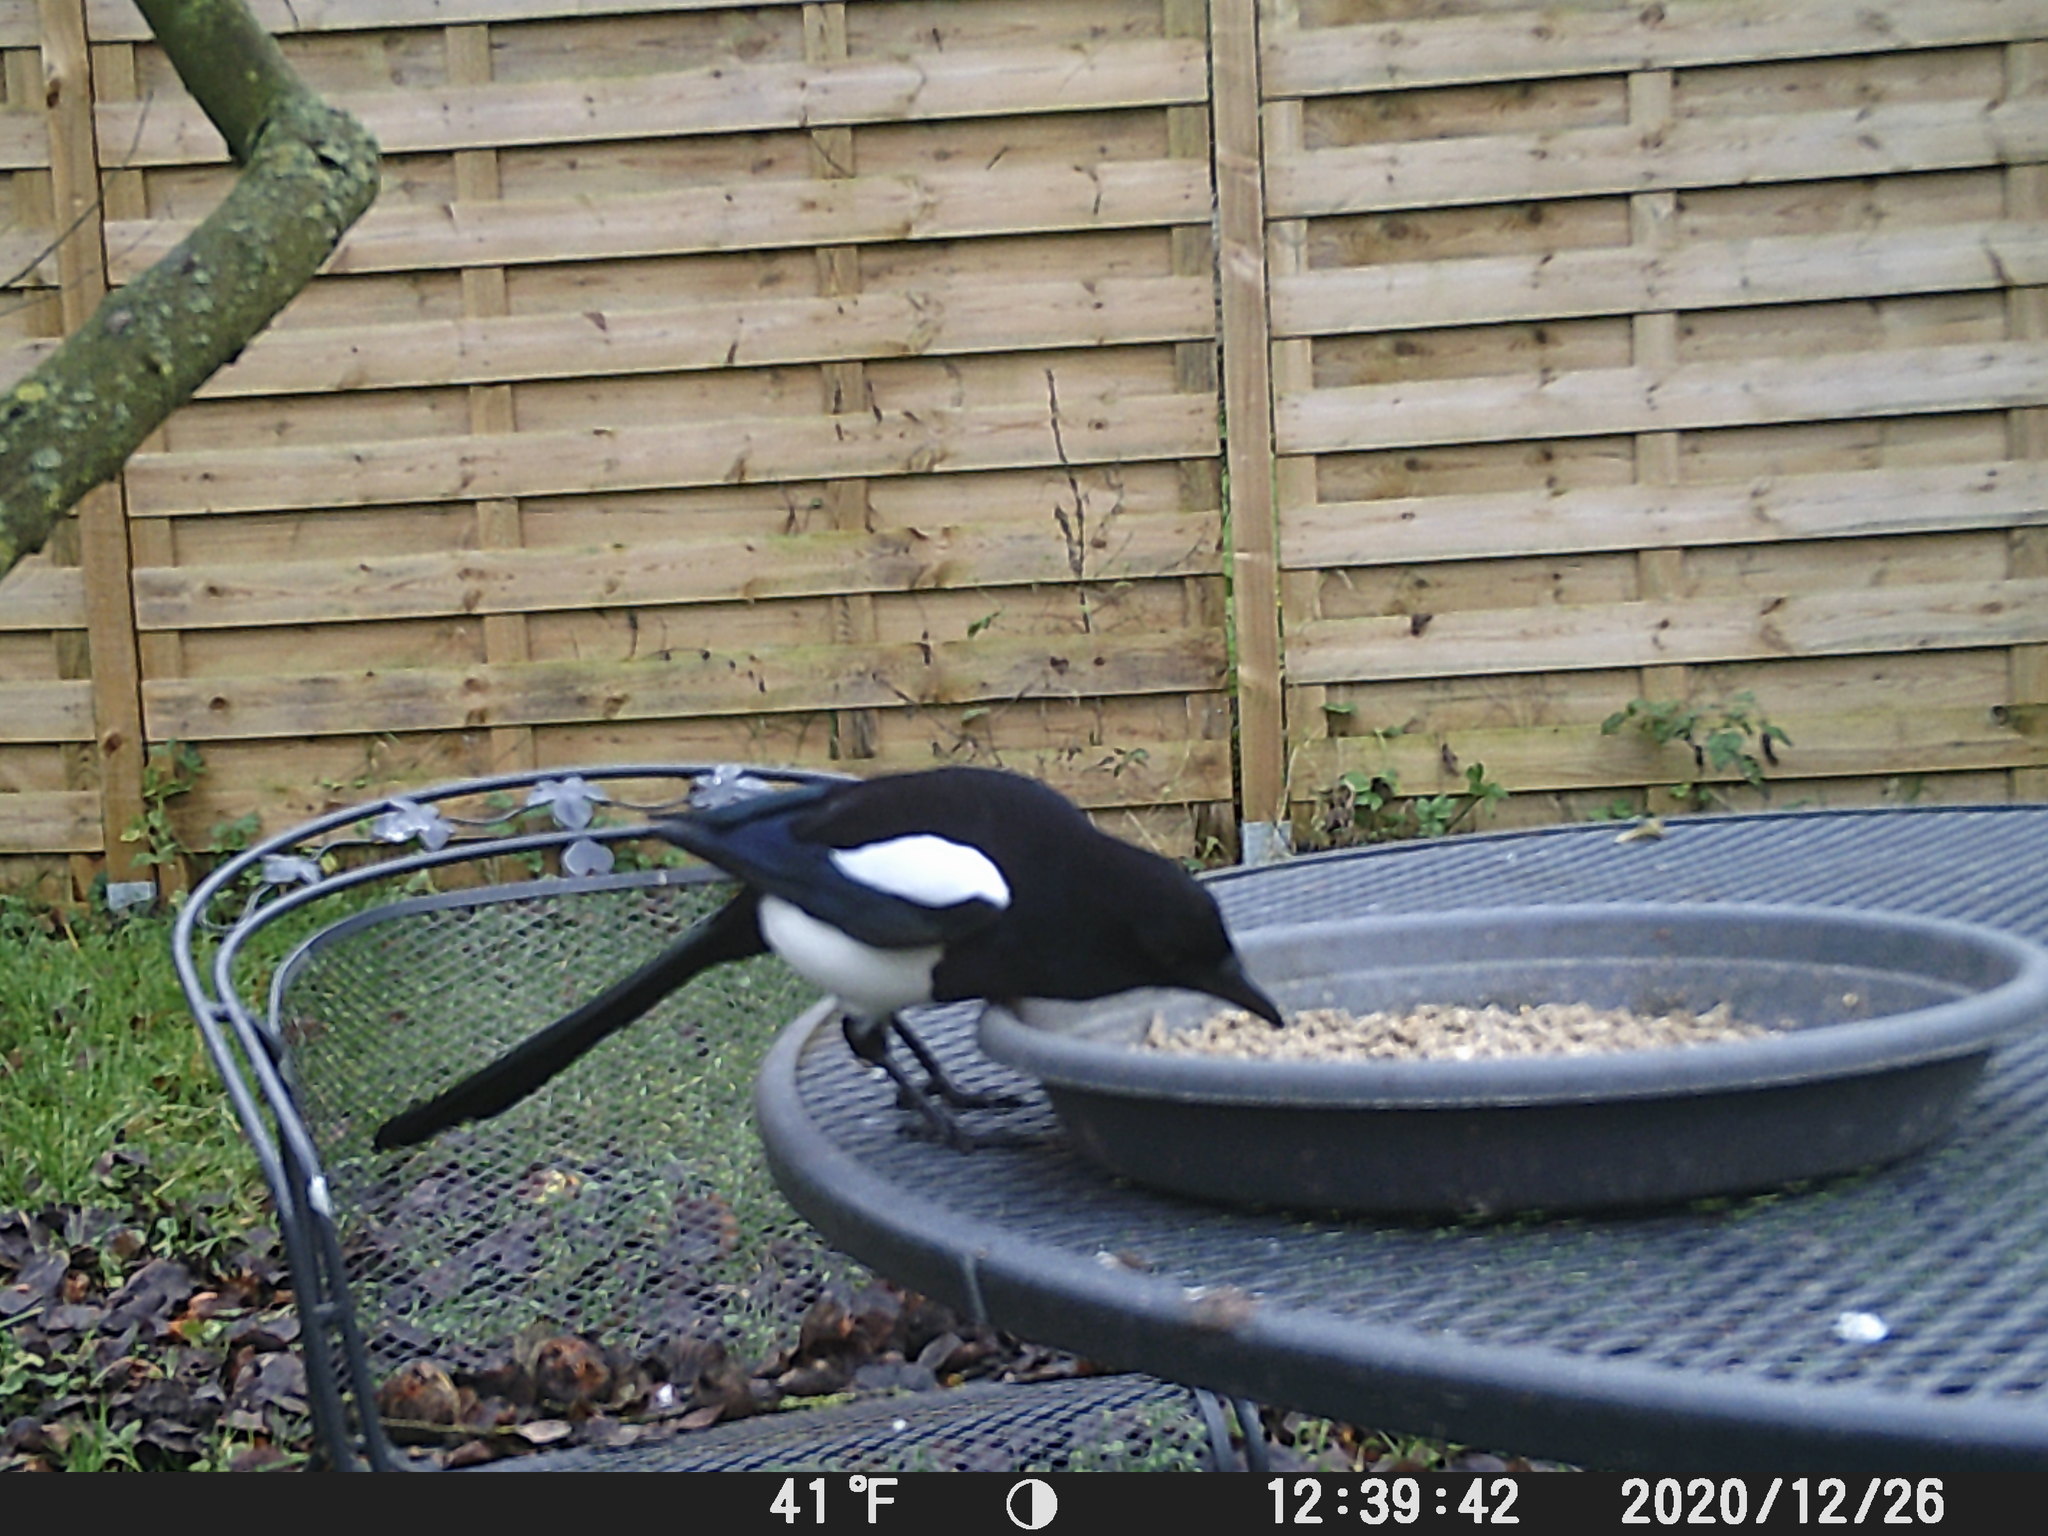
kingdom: Animalia
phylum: Chordata
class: Aves
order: Passeriformes
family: Corvidae
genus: Pica
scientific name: Pica pica
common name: Eurasian magpie
